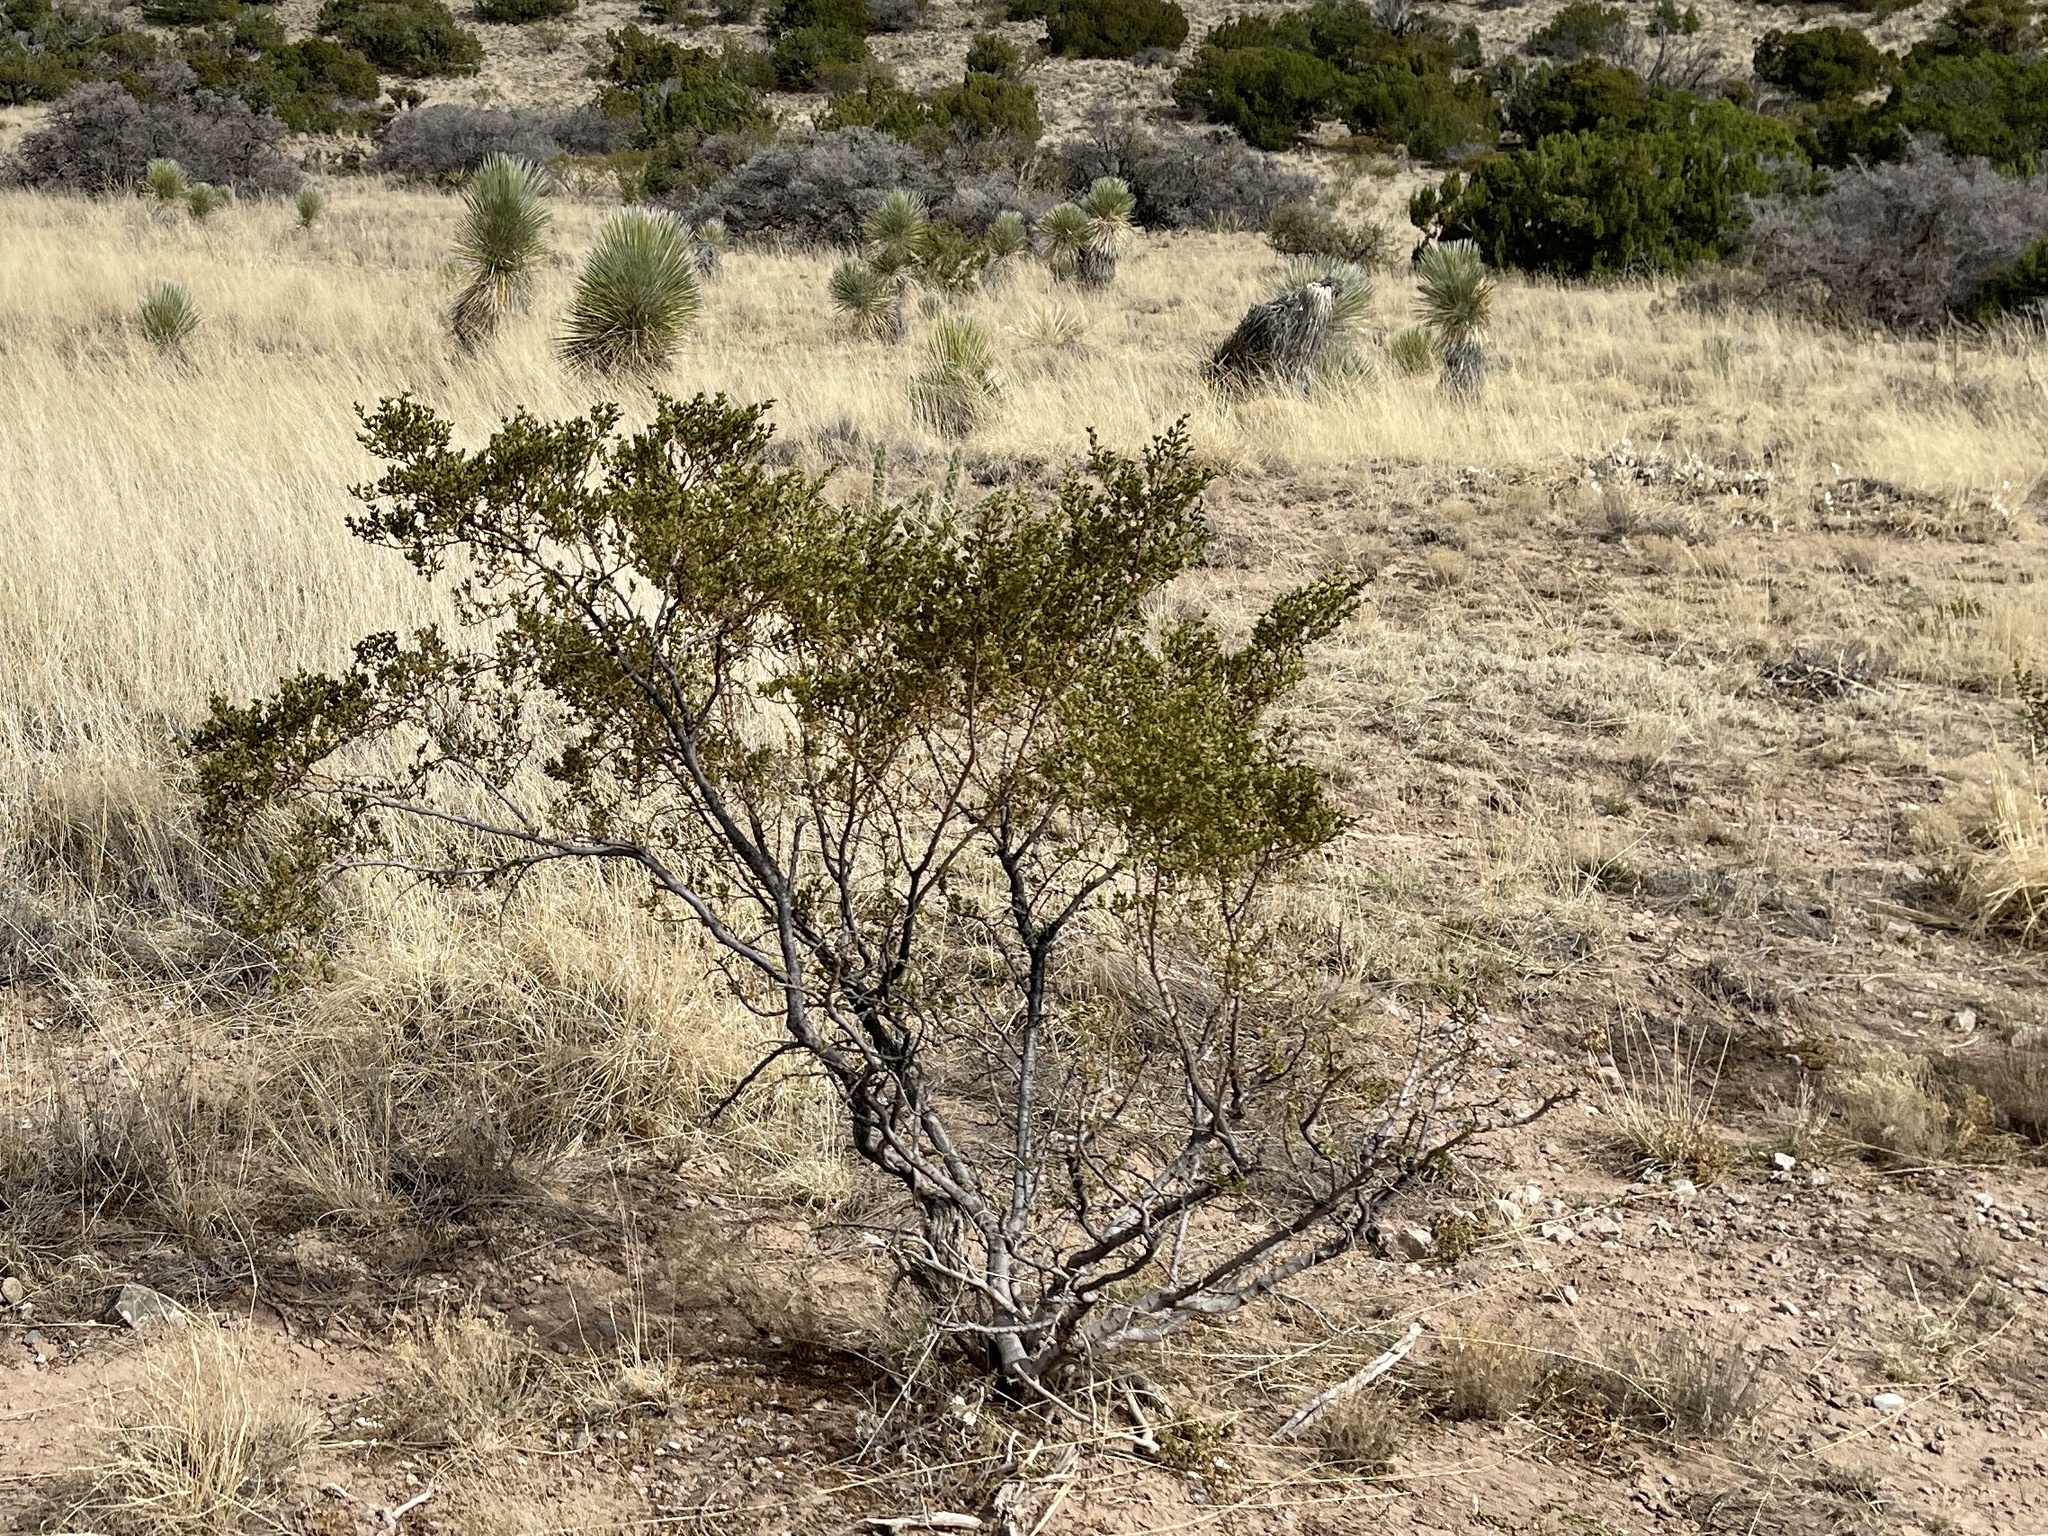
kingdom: Plantae
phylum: Tracheophyta
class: Magnoliopsida
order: Zygophyllales
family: Zygophyllaceae
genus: Larrea
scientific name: Larrea tridentata
